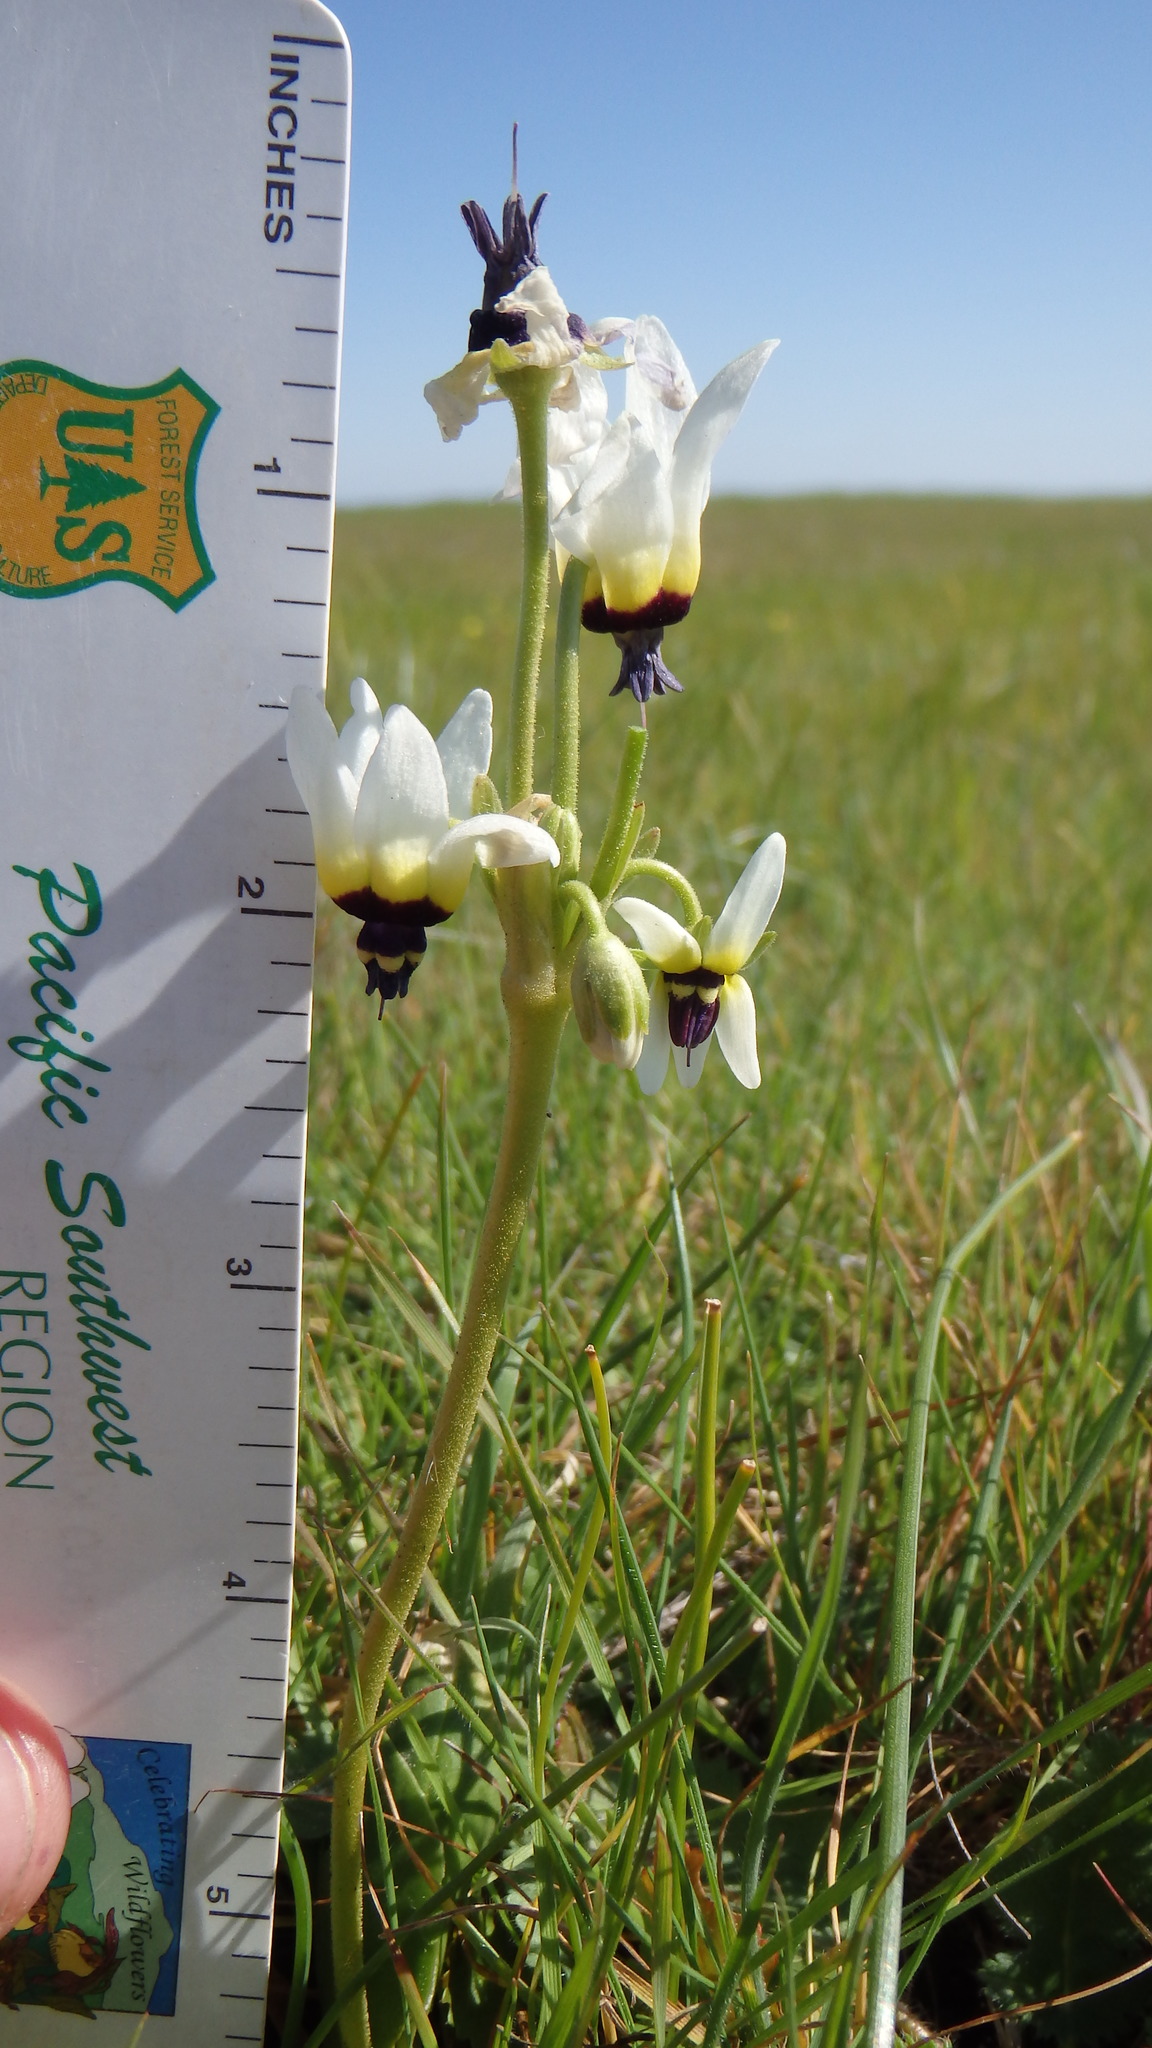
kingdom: Plantae
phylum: Tracheophyta
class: Magnoliopsida
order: Ericales
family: Primulaceae
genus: Dodecatheon
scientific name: Dodecatheon clevelandii
